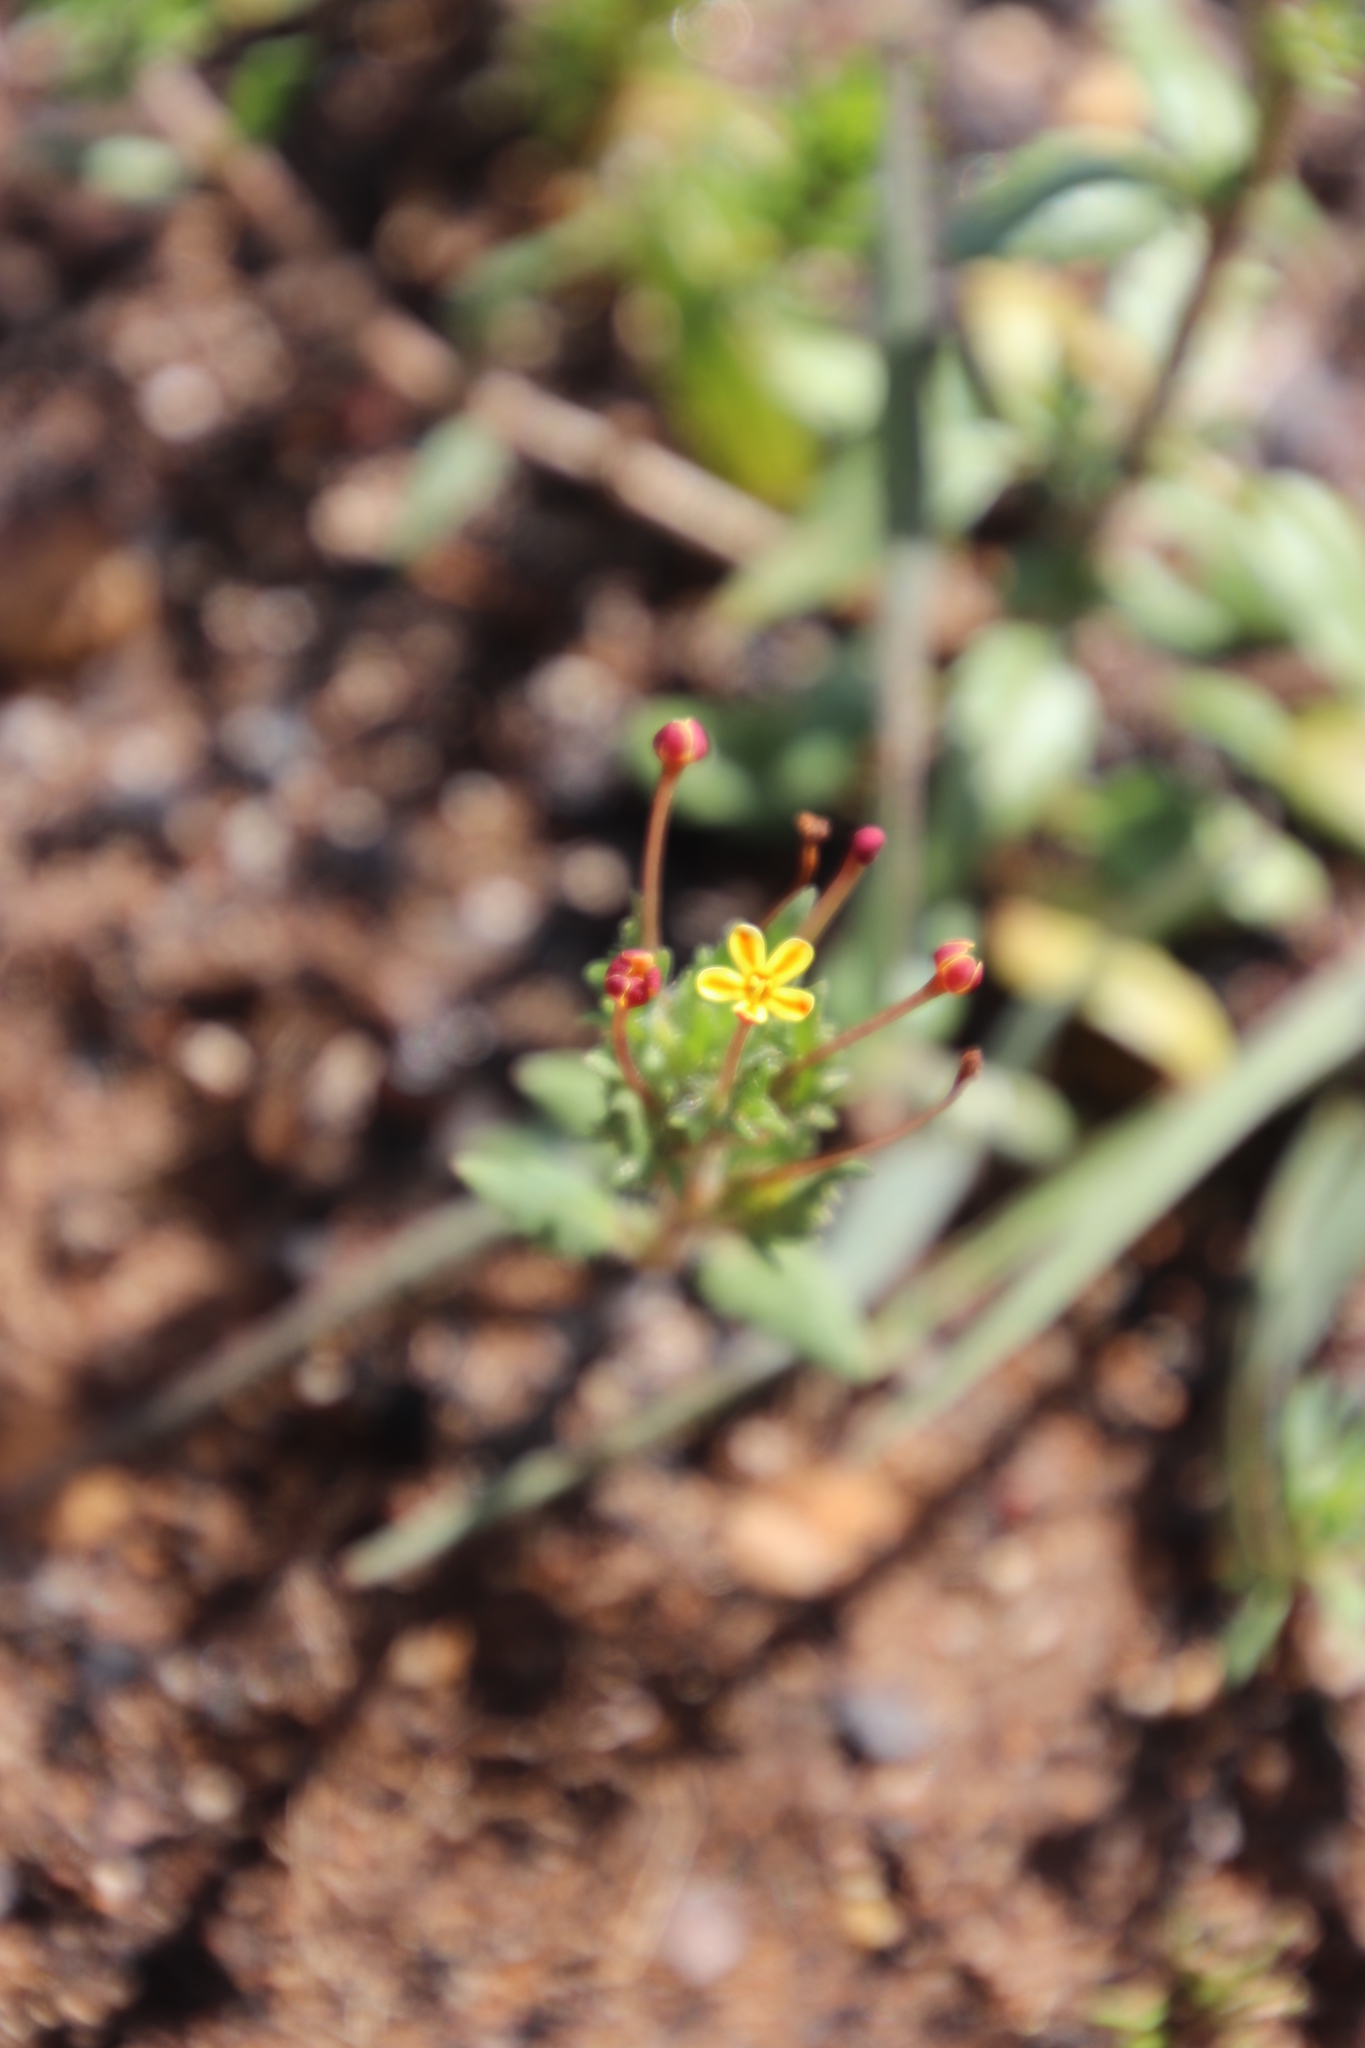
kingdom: Plantae
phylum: Tracheophyta
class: Magnoliopsida
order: Lamiales
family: Scrophulariaceae
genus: Zaluzianskya
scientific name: Zaluzianskya divaricata
